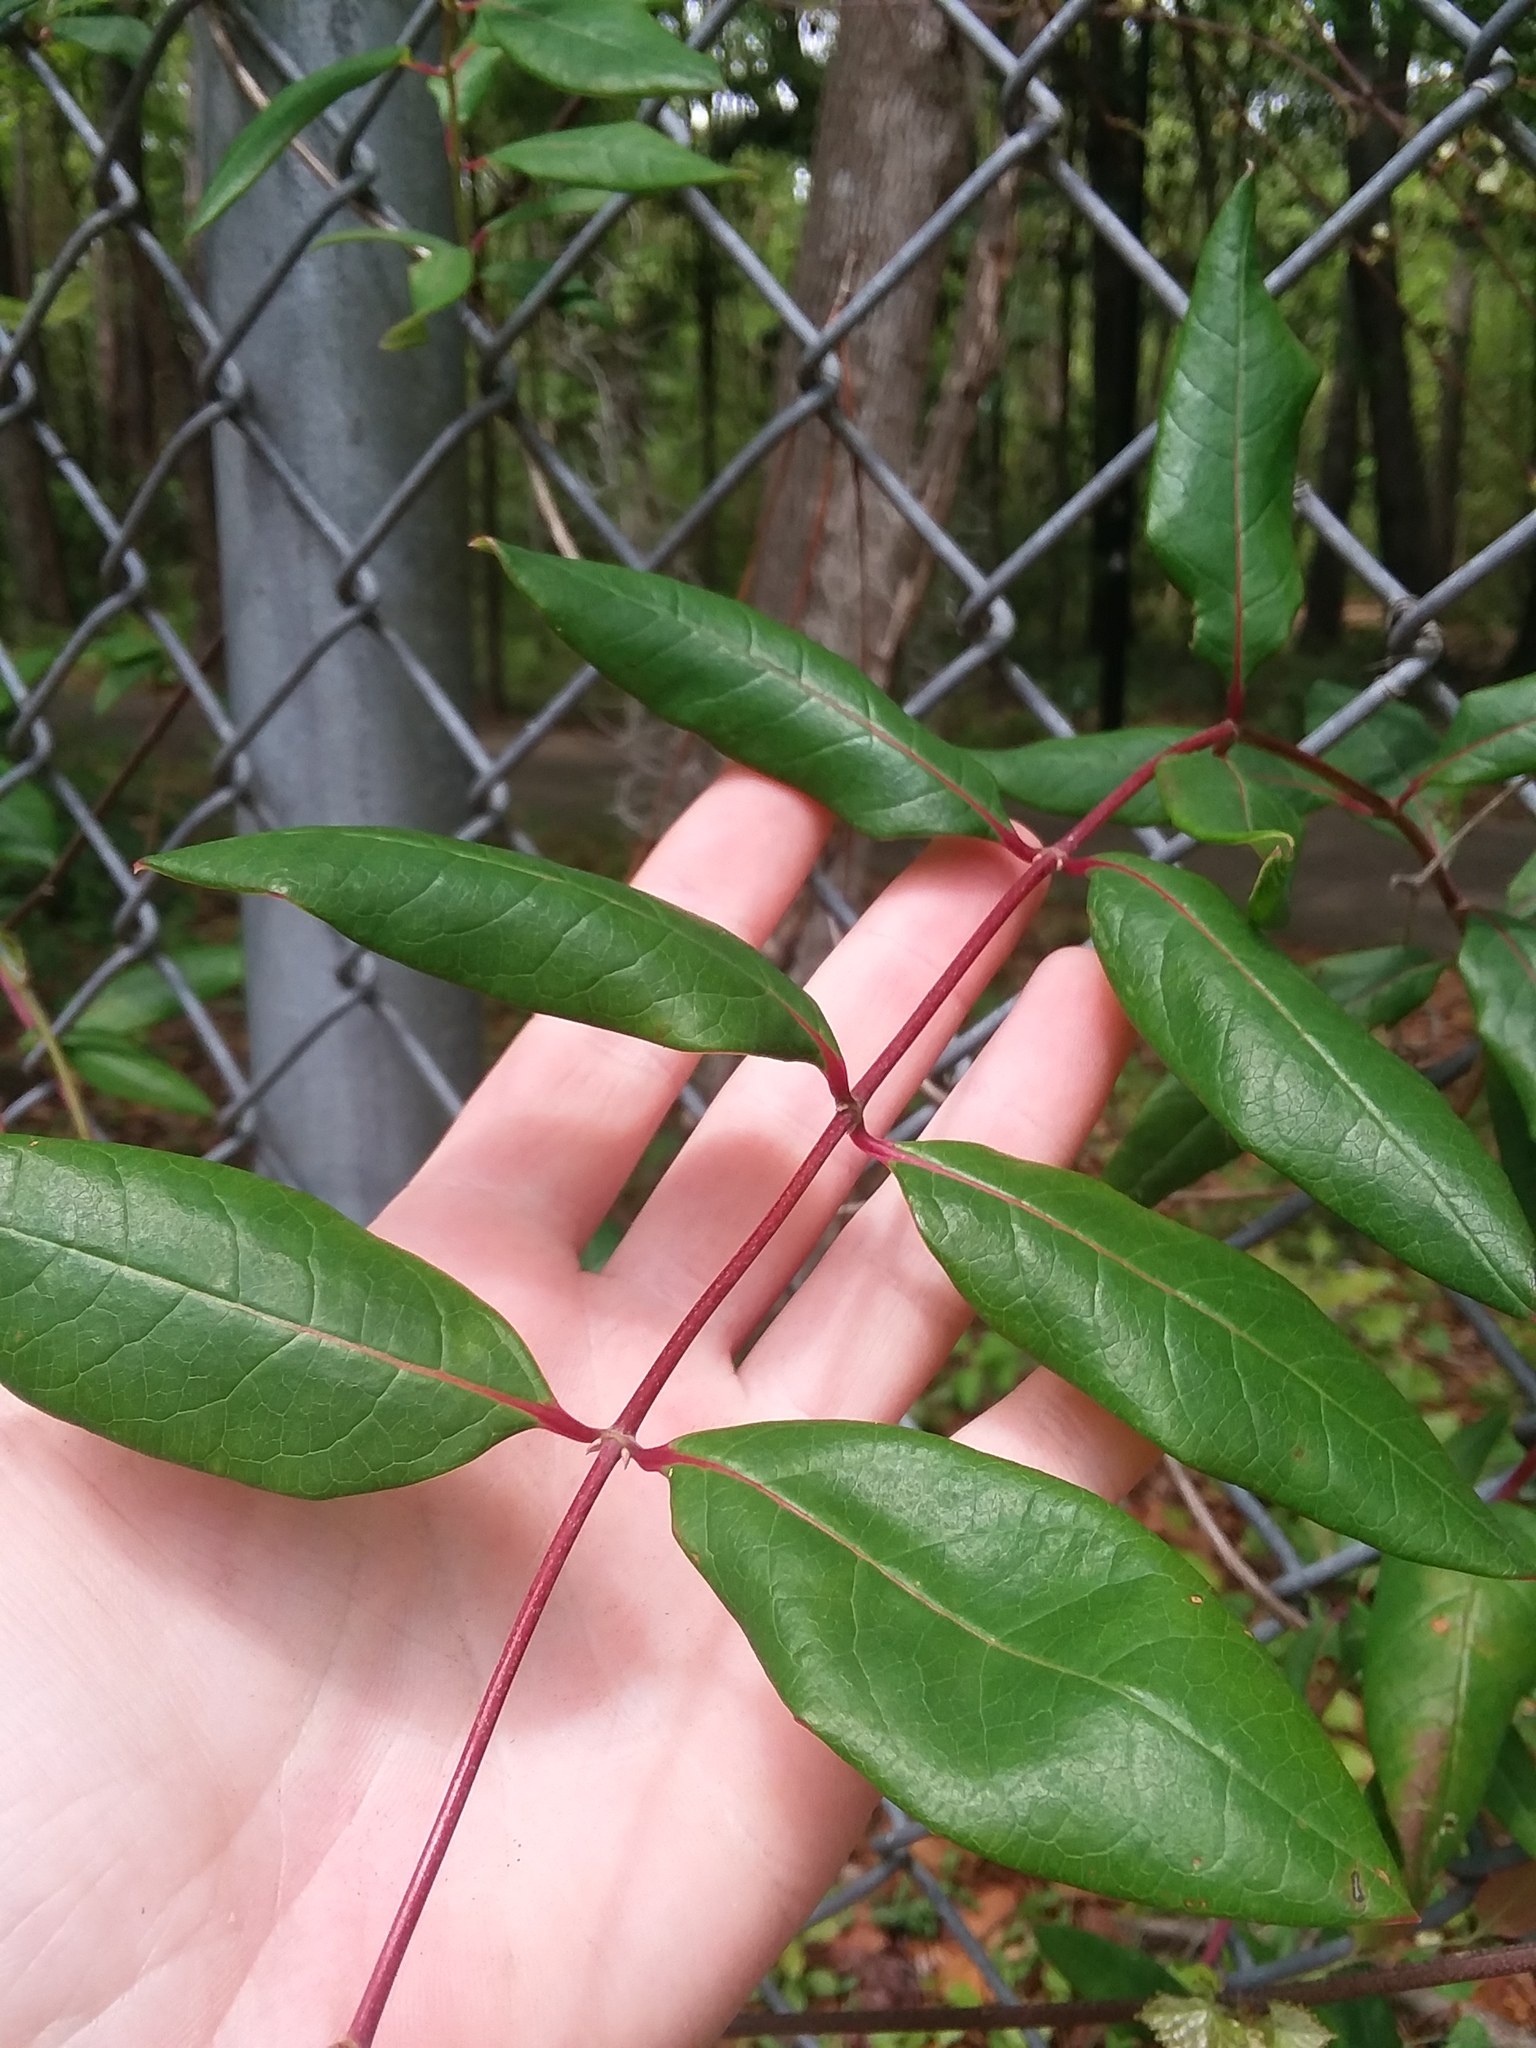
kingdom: Plantae
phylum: Tracheophyta
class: Magnoliopsida
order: Dipsacales
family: Caprifoliaceae
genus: Lonicera
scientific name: Lonicera sempervirens
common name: Coral honeysuckle
